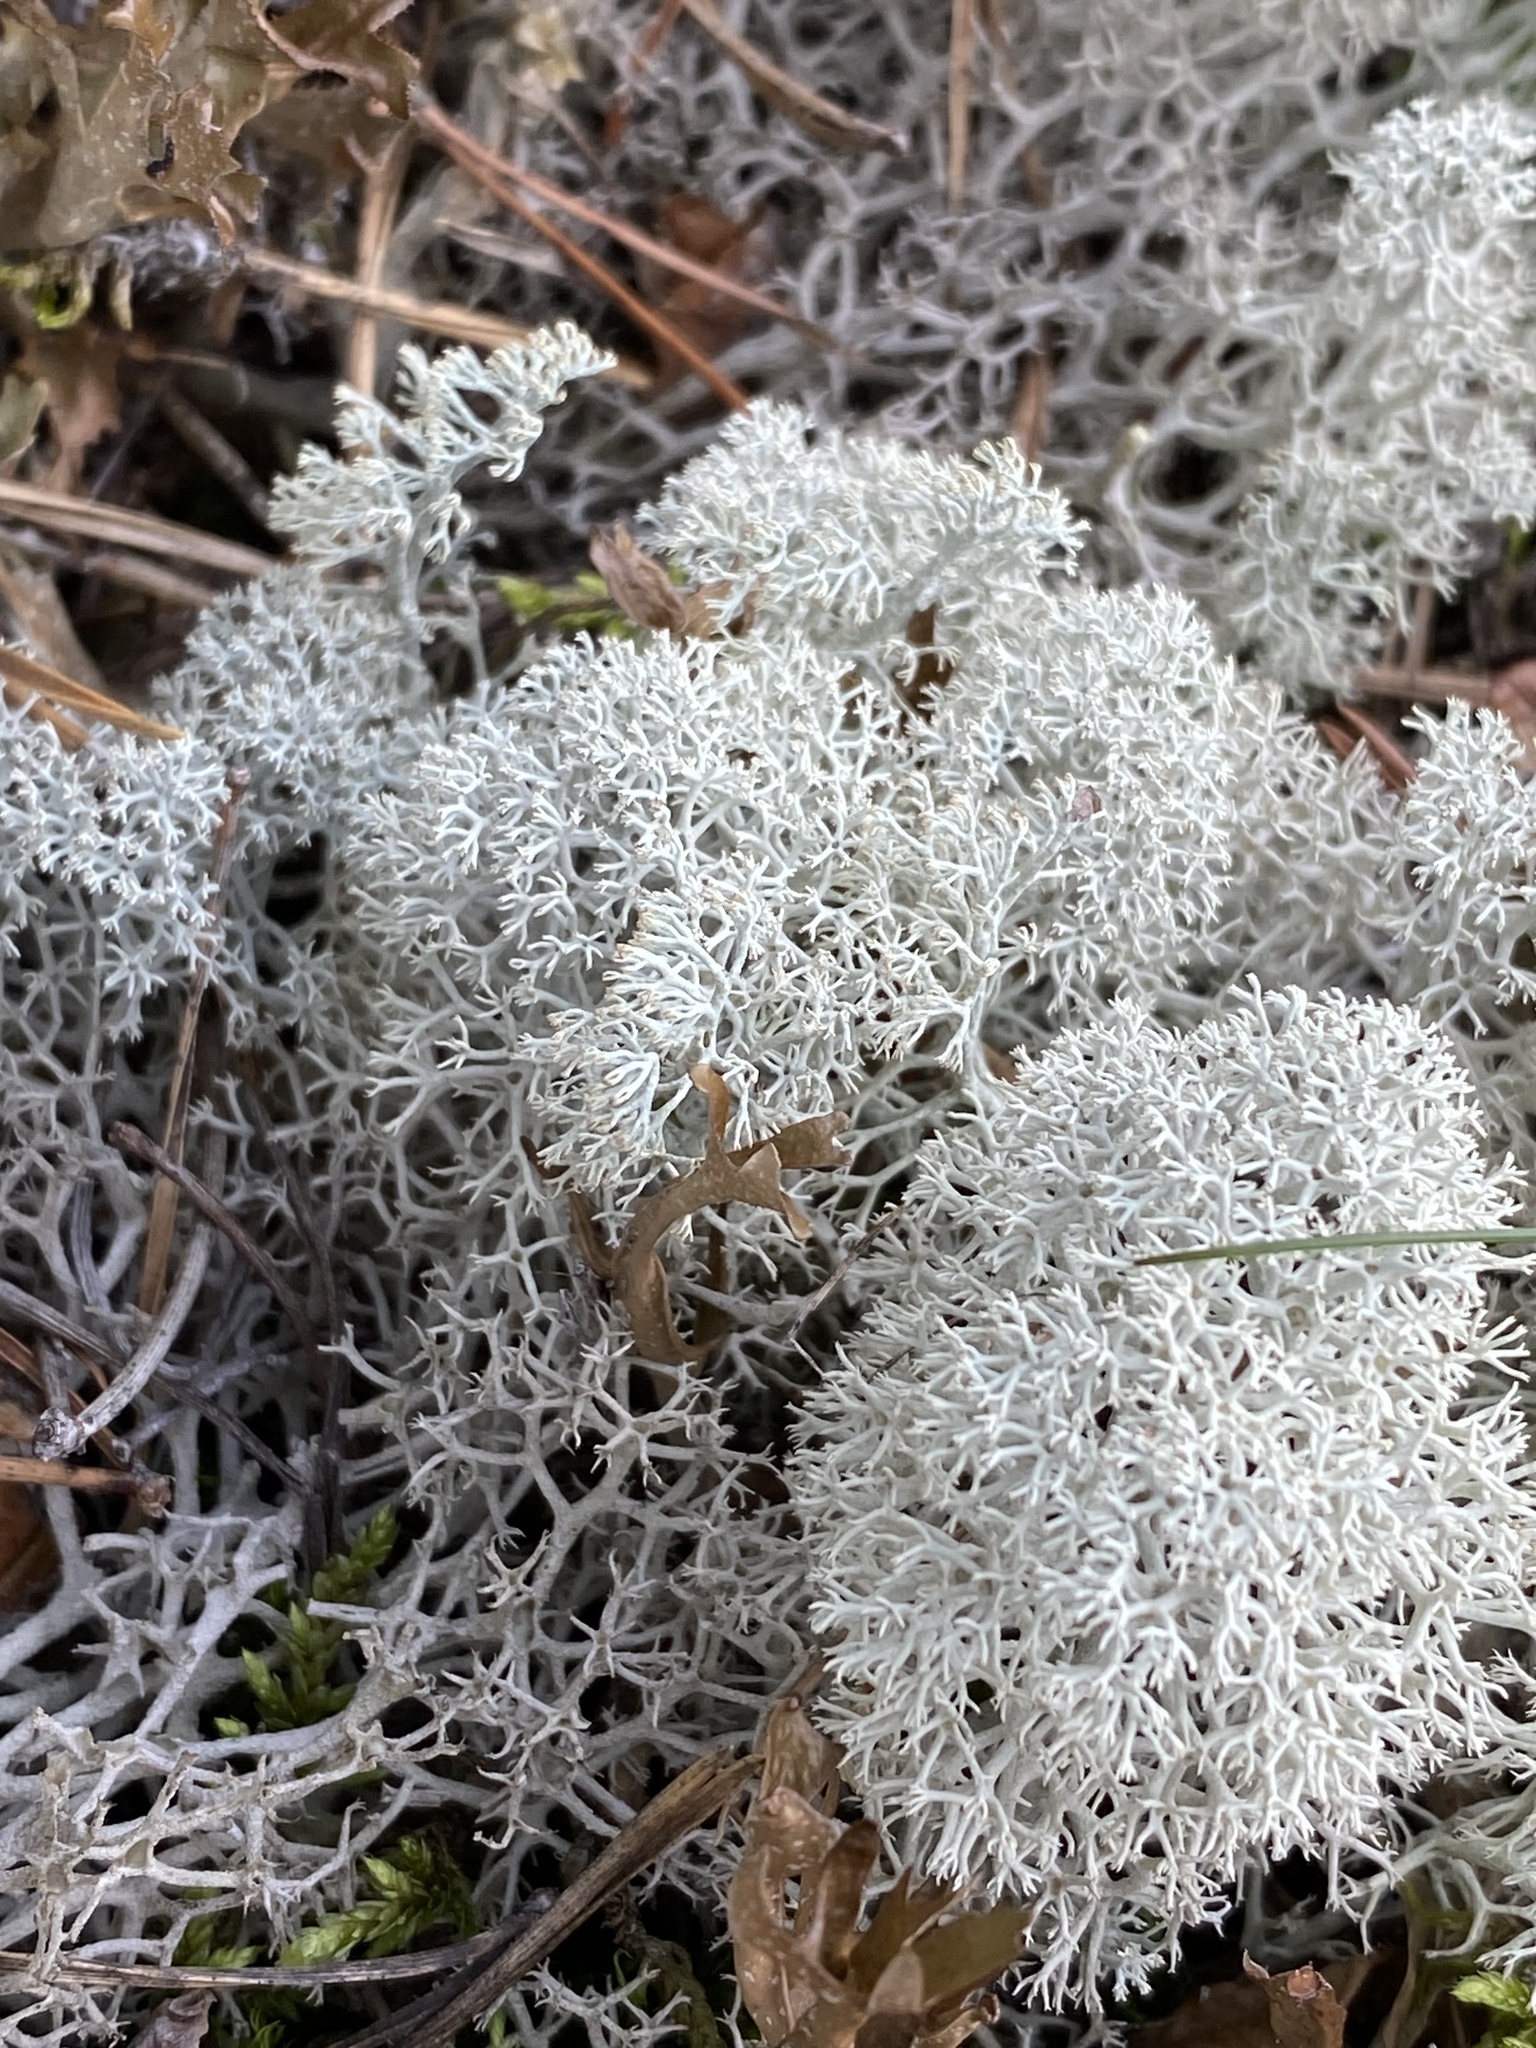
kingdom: Fungi
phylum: Ascomycota
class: Lecanoromycetes
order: Lecanorales
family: Cladoniaceae
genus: Cladonia
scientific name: Cladonia stellaris
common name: Star-tipped reindeer lichen
